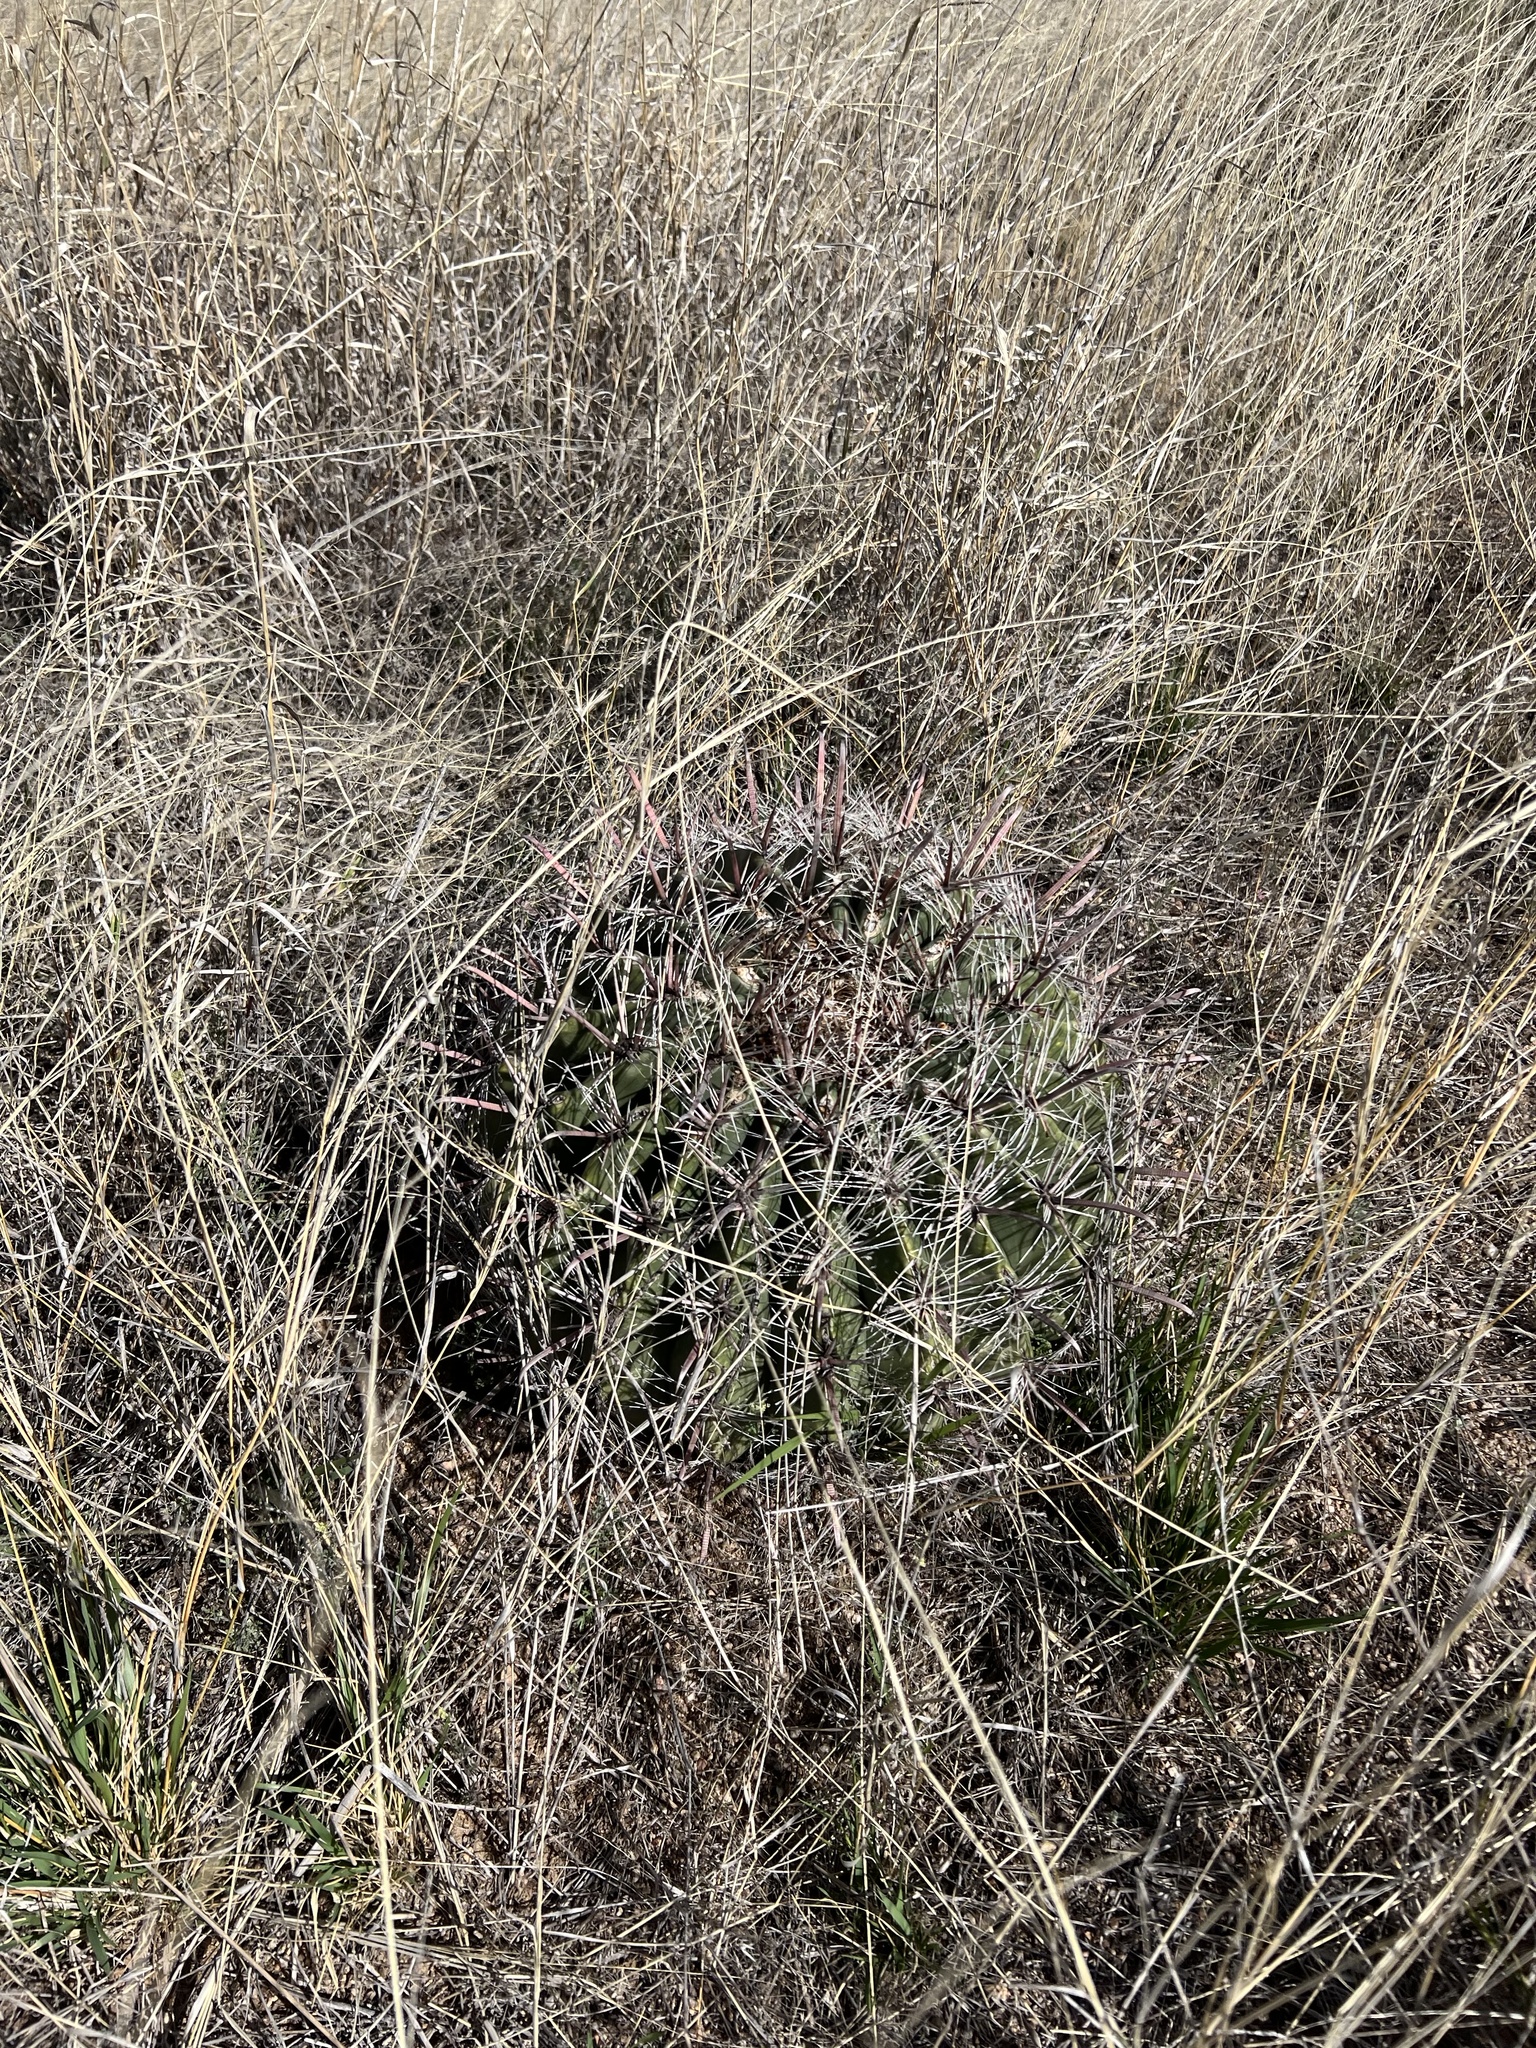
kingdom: Plantae
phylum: Tracheophyta
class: Magnoliopsida
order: Caryophyllales
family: Cactaceae
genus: Ferocactus
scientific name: Ferocactus wislizeni
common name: Candy barrel cactus
